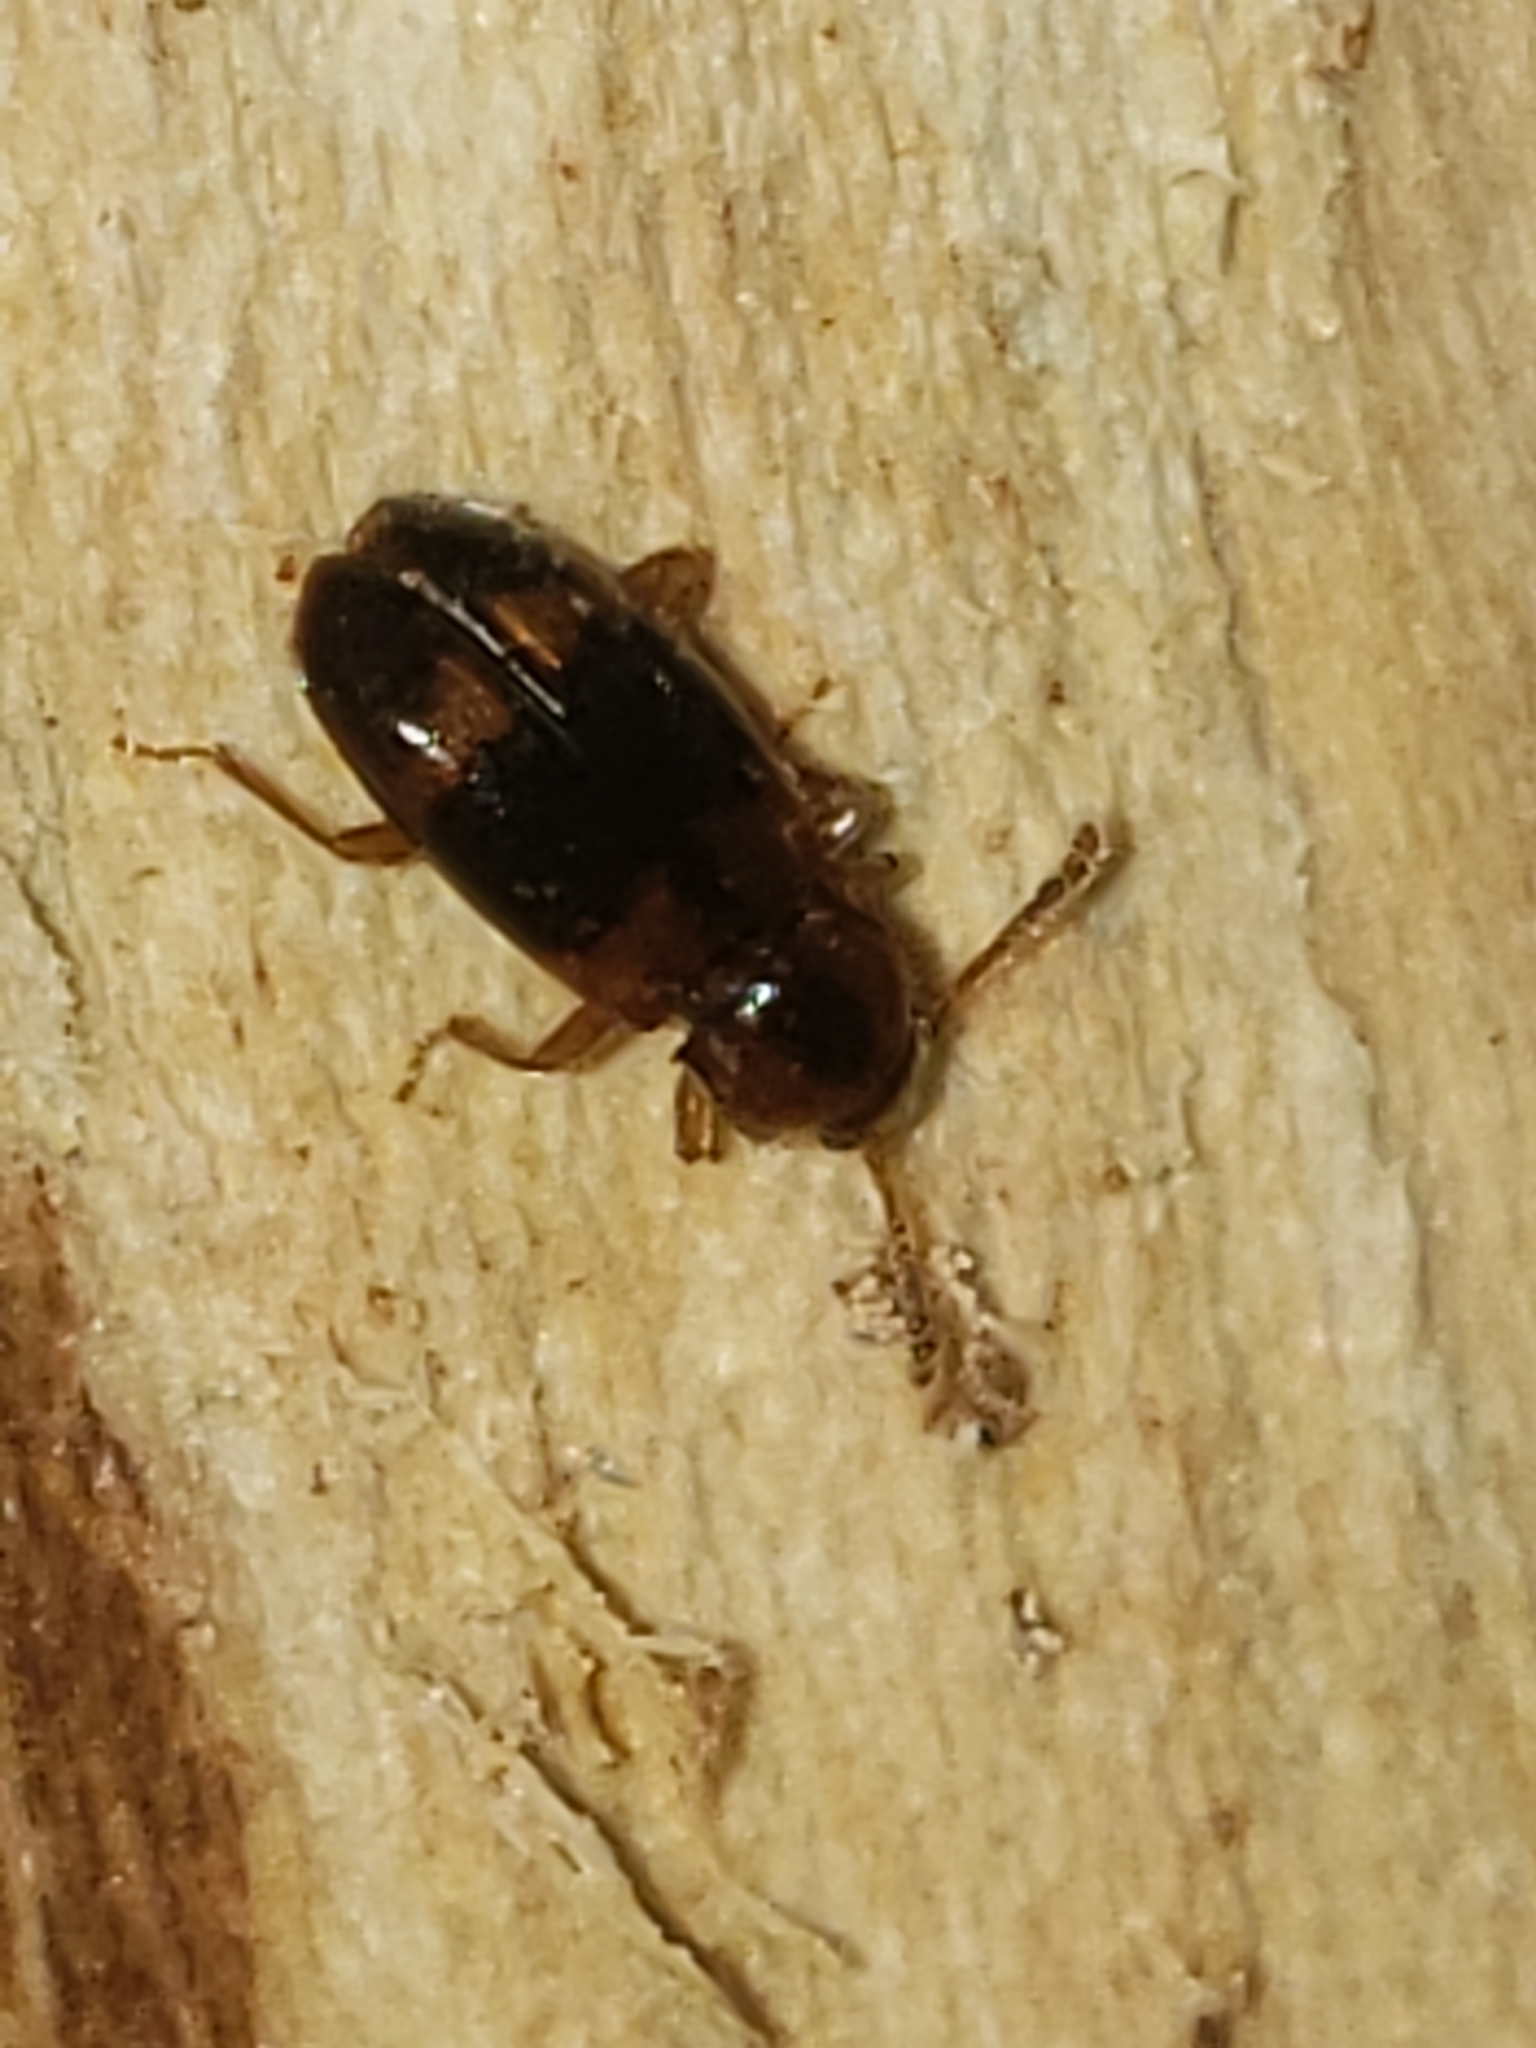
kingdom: Animalia
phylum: Arthropoda
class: Insecta
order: Coleoptera
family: Endomychidae
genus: Phymaphora
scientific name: Phymaphora pulchella
